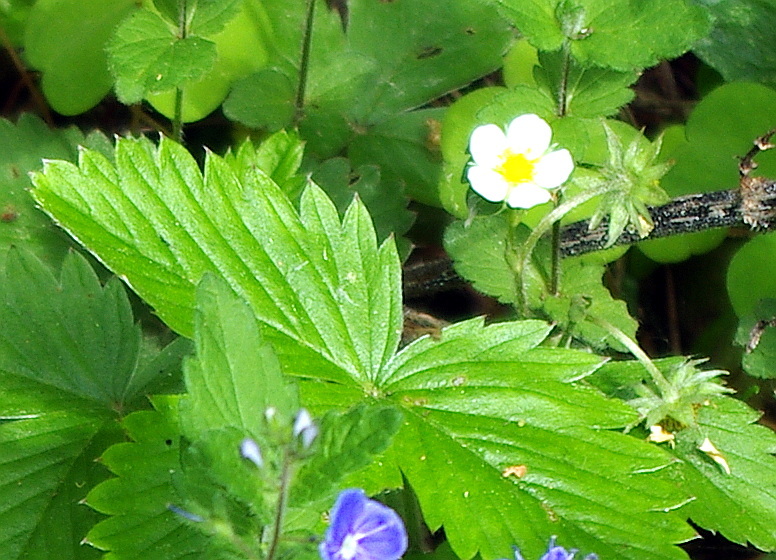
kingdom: Plantae
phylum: Tracheophyta
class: Magnoliopsida
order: Rosales
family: Rosaceae
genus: Fragaria
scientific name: Fragaria vesca
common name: Wild strawberry
